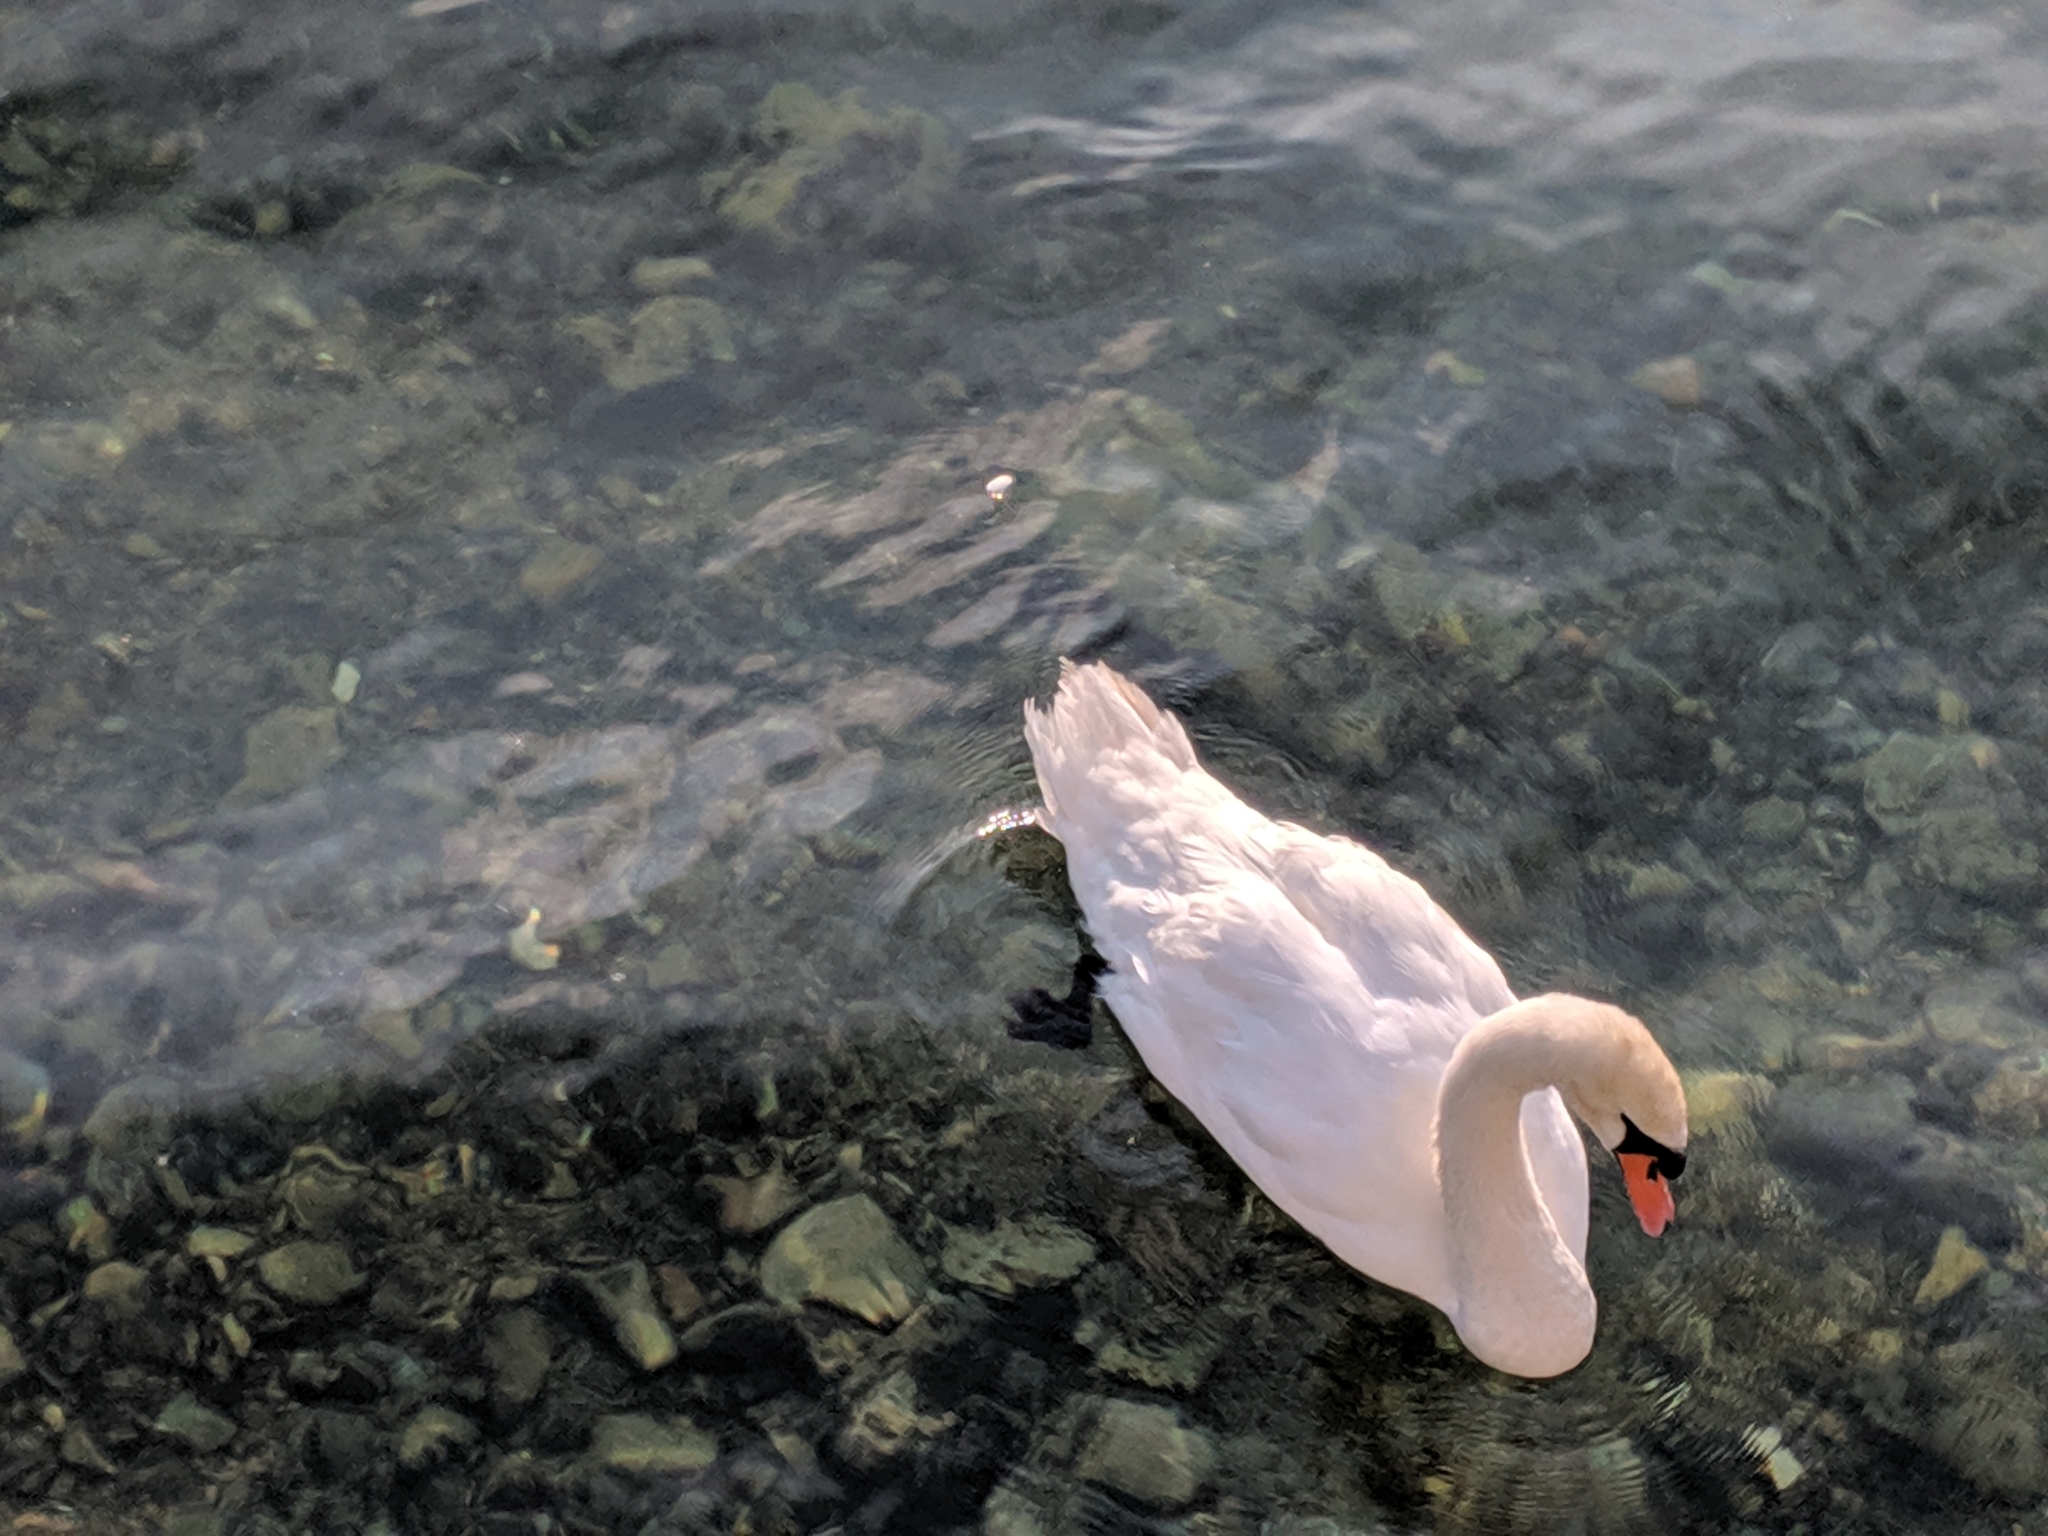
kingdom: Animalia
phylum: Chordata
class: Aves
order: Anseriformes
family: Anatidae
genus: Cygnus
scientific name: Cygnus olor
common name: Mute swan
